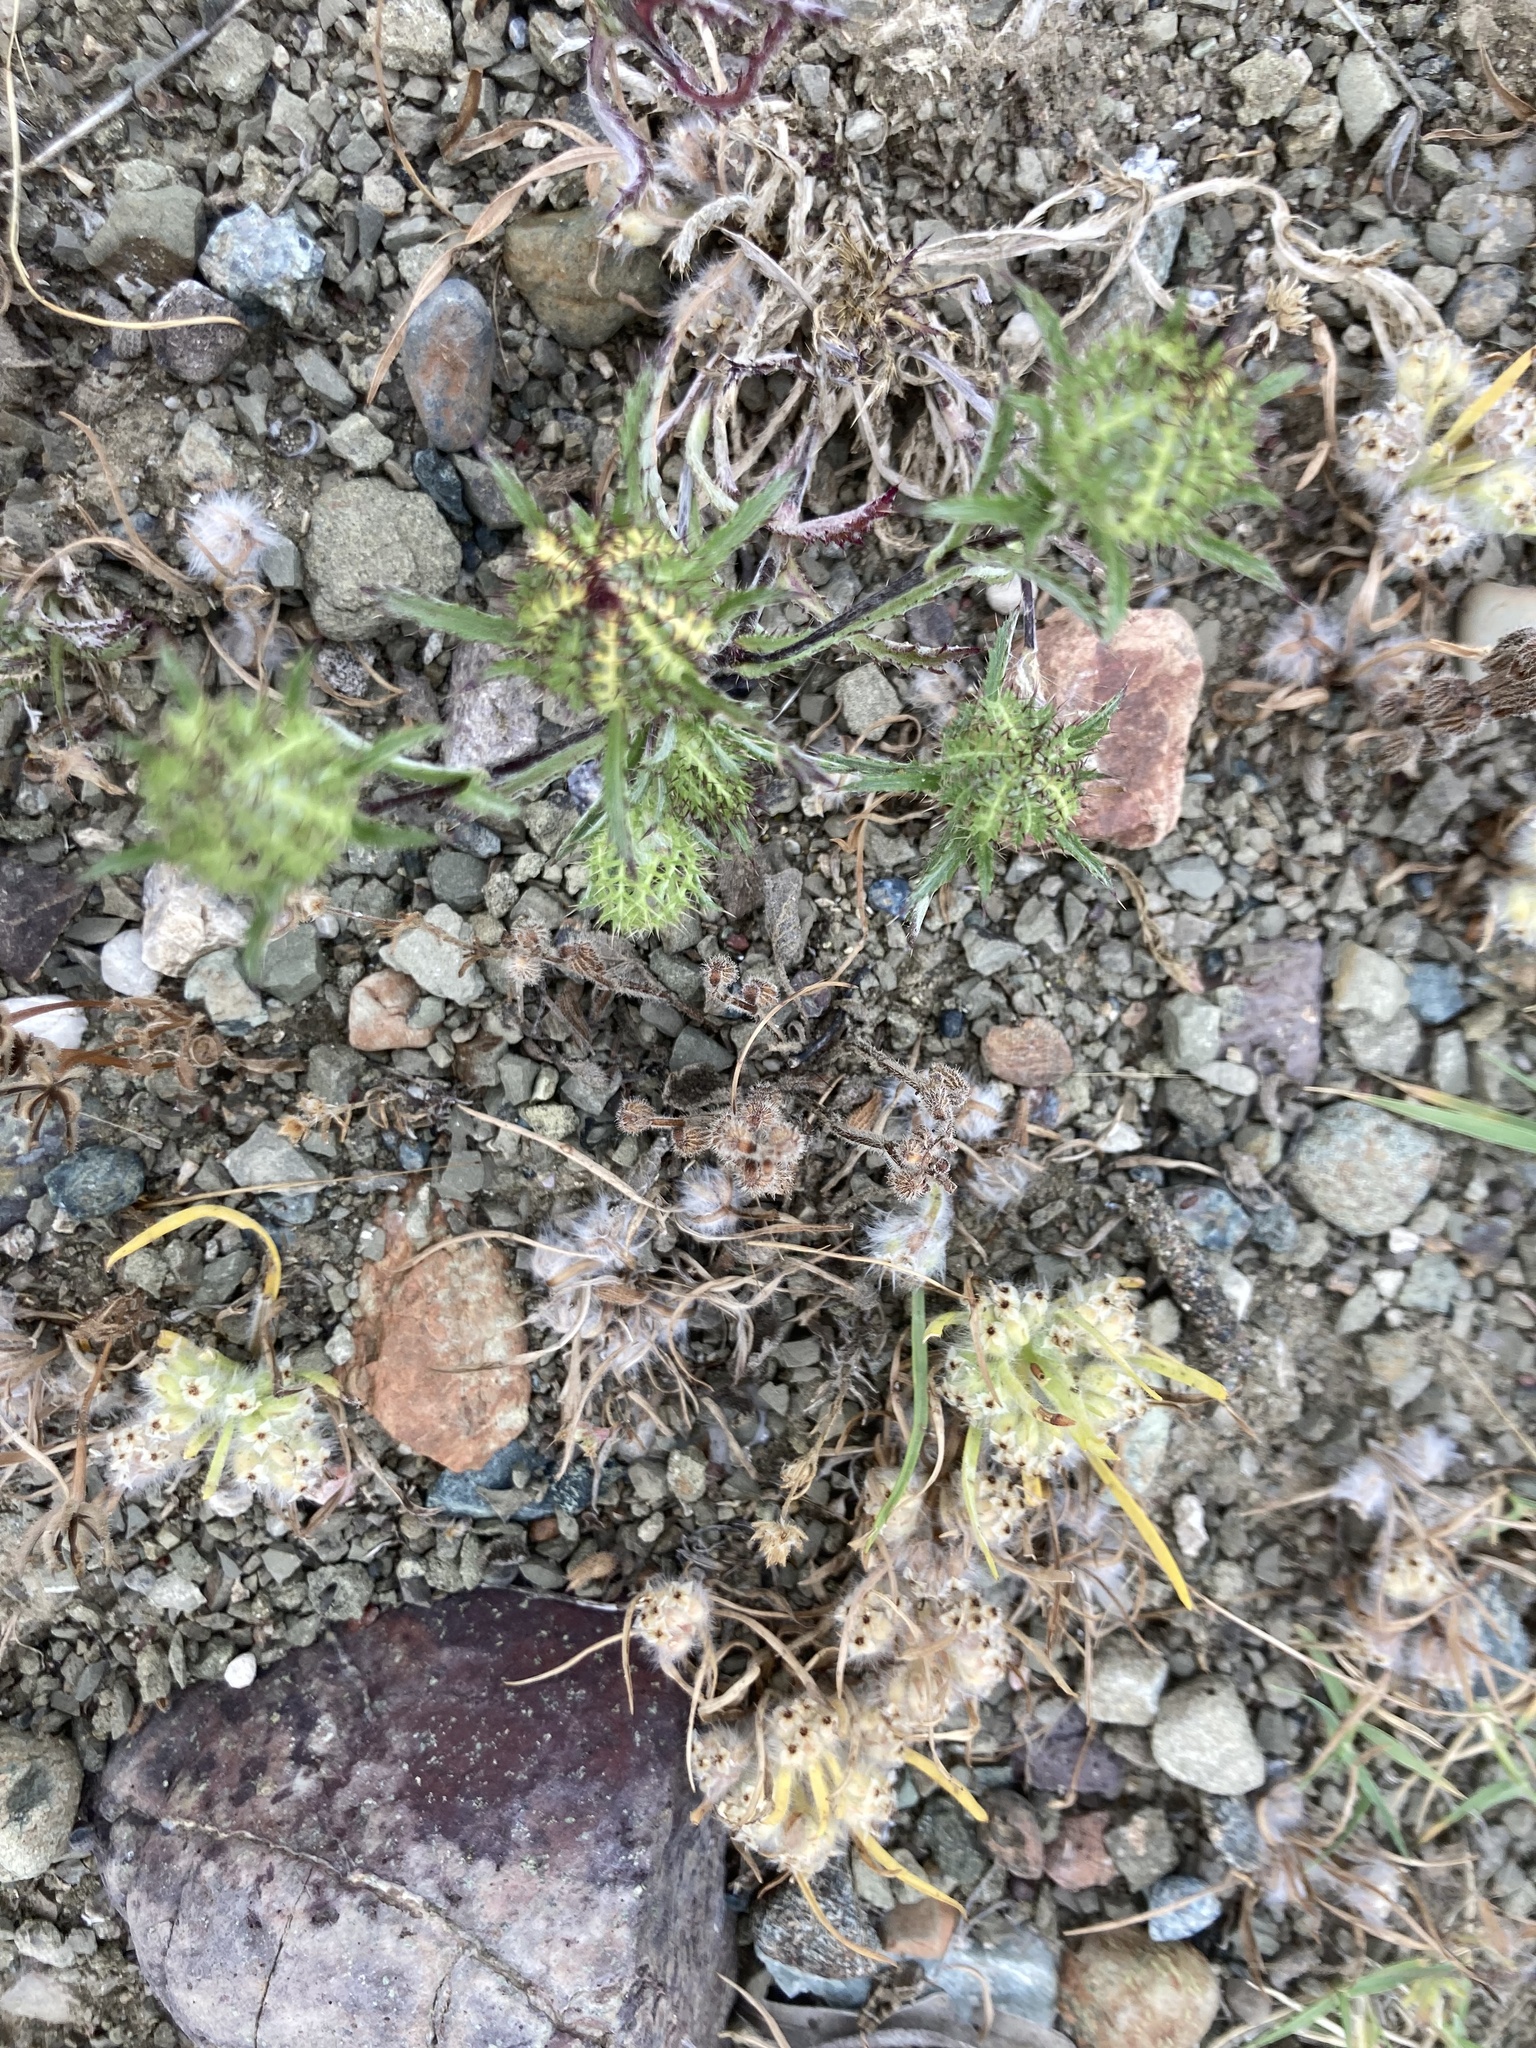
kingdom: Plantae
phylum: Tracheophyta
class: Magnoliopsida
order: Asterales
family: Asteraceae
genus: Atractylis
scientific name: Atractylis cancellata
